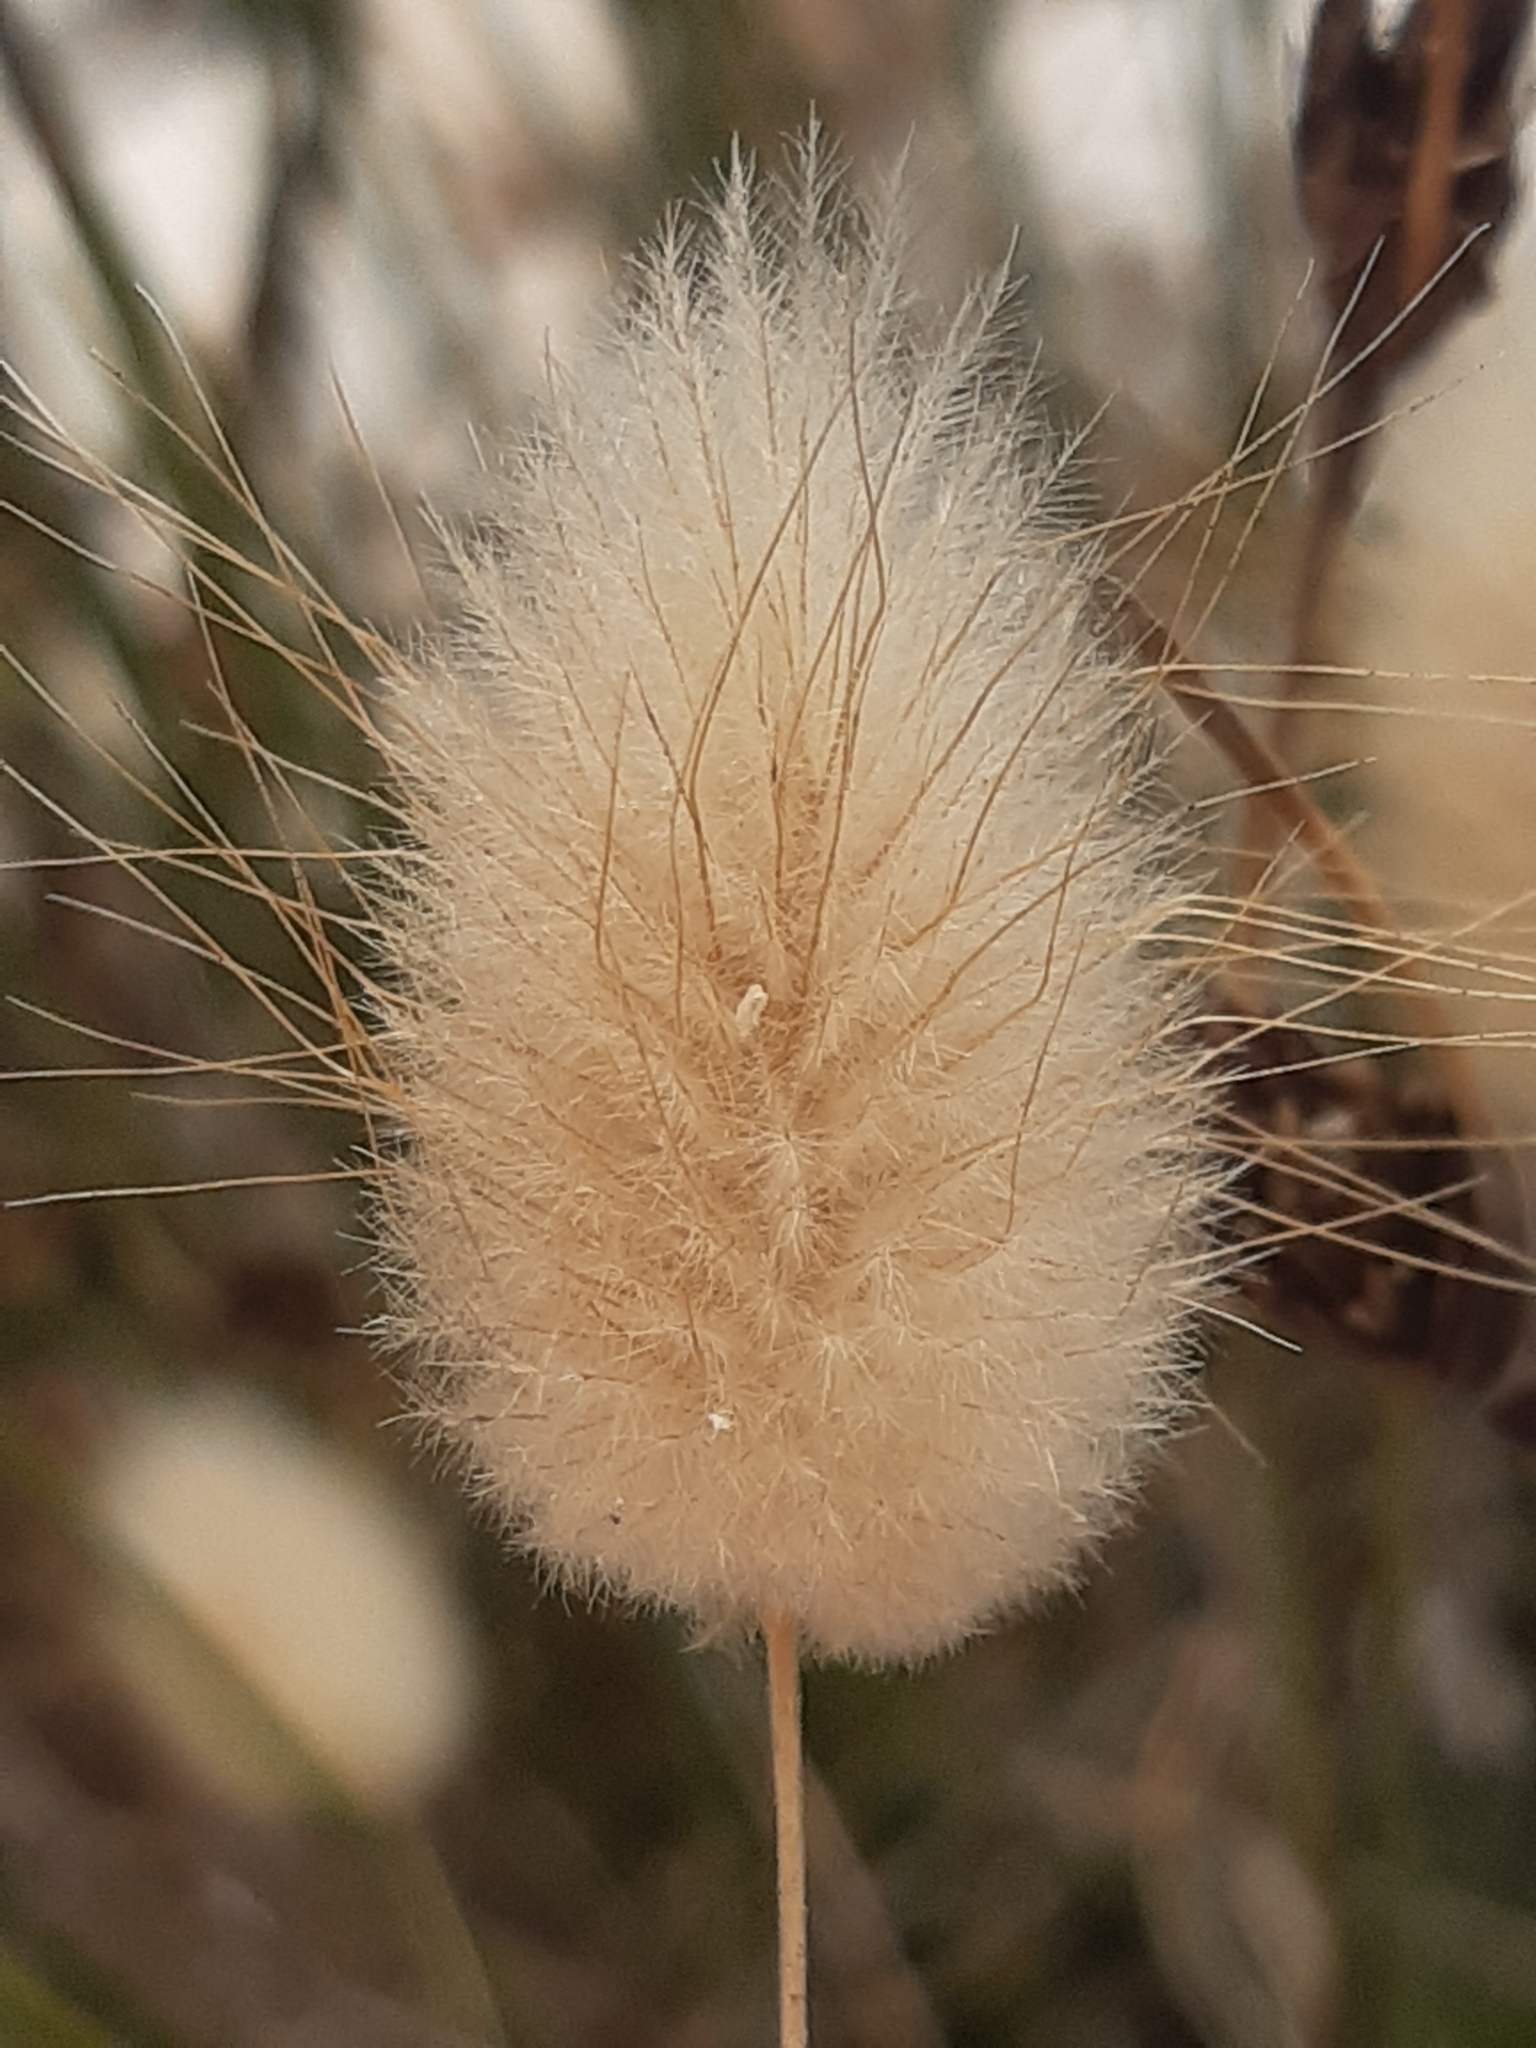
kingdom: Plantae
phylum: Tracheophyta
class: Liliopsida
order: Poales
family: Poaceae
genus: Lagurus
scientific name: Lagurus ovatus
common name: Hare's-tail
